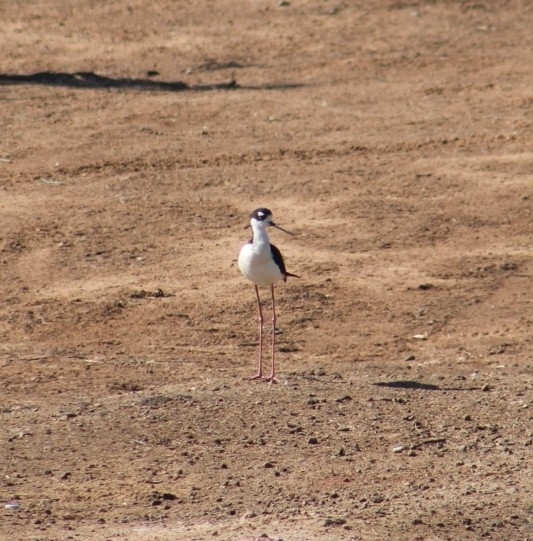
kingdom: Animalia
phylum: Chordata
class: Aves
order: Charadriiformes
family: Recurvirostridae
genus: Himantopus
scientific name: Himantopus mexicanus
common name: Black-necked stilt
